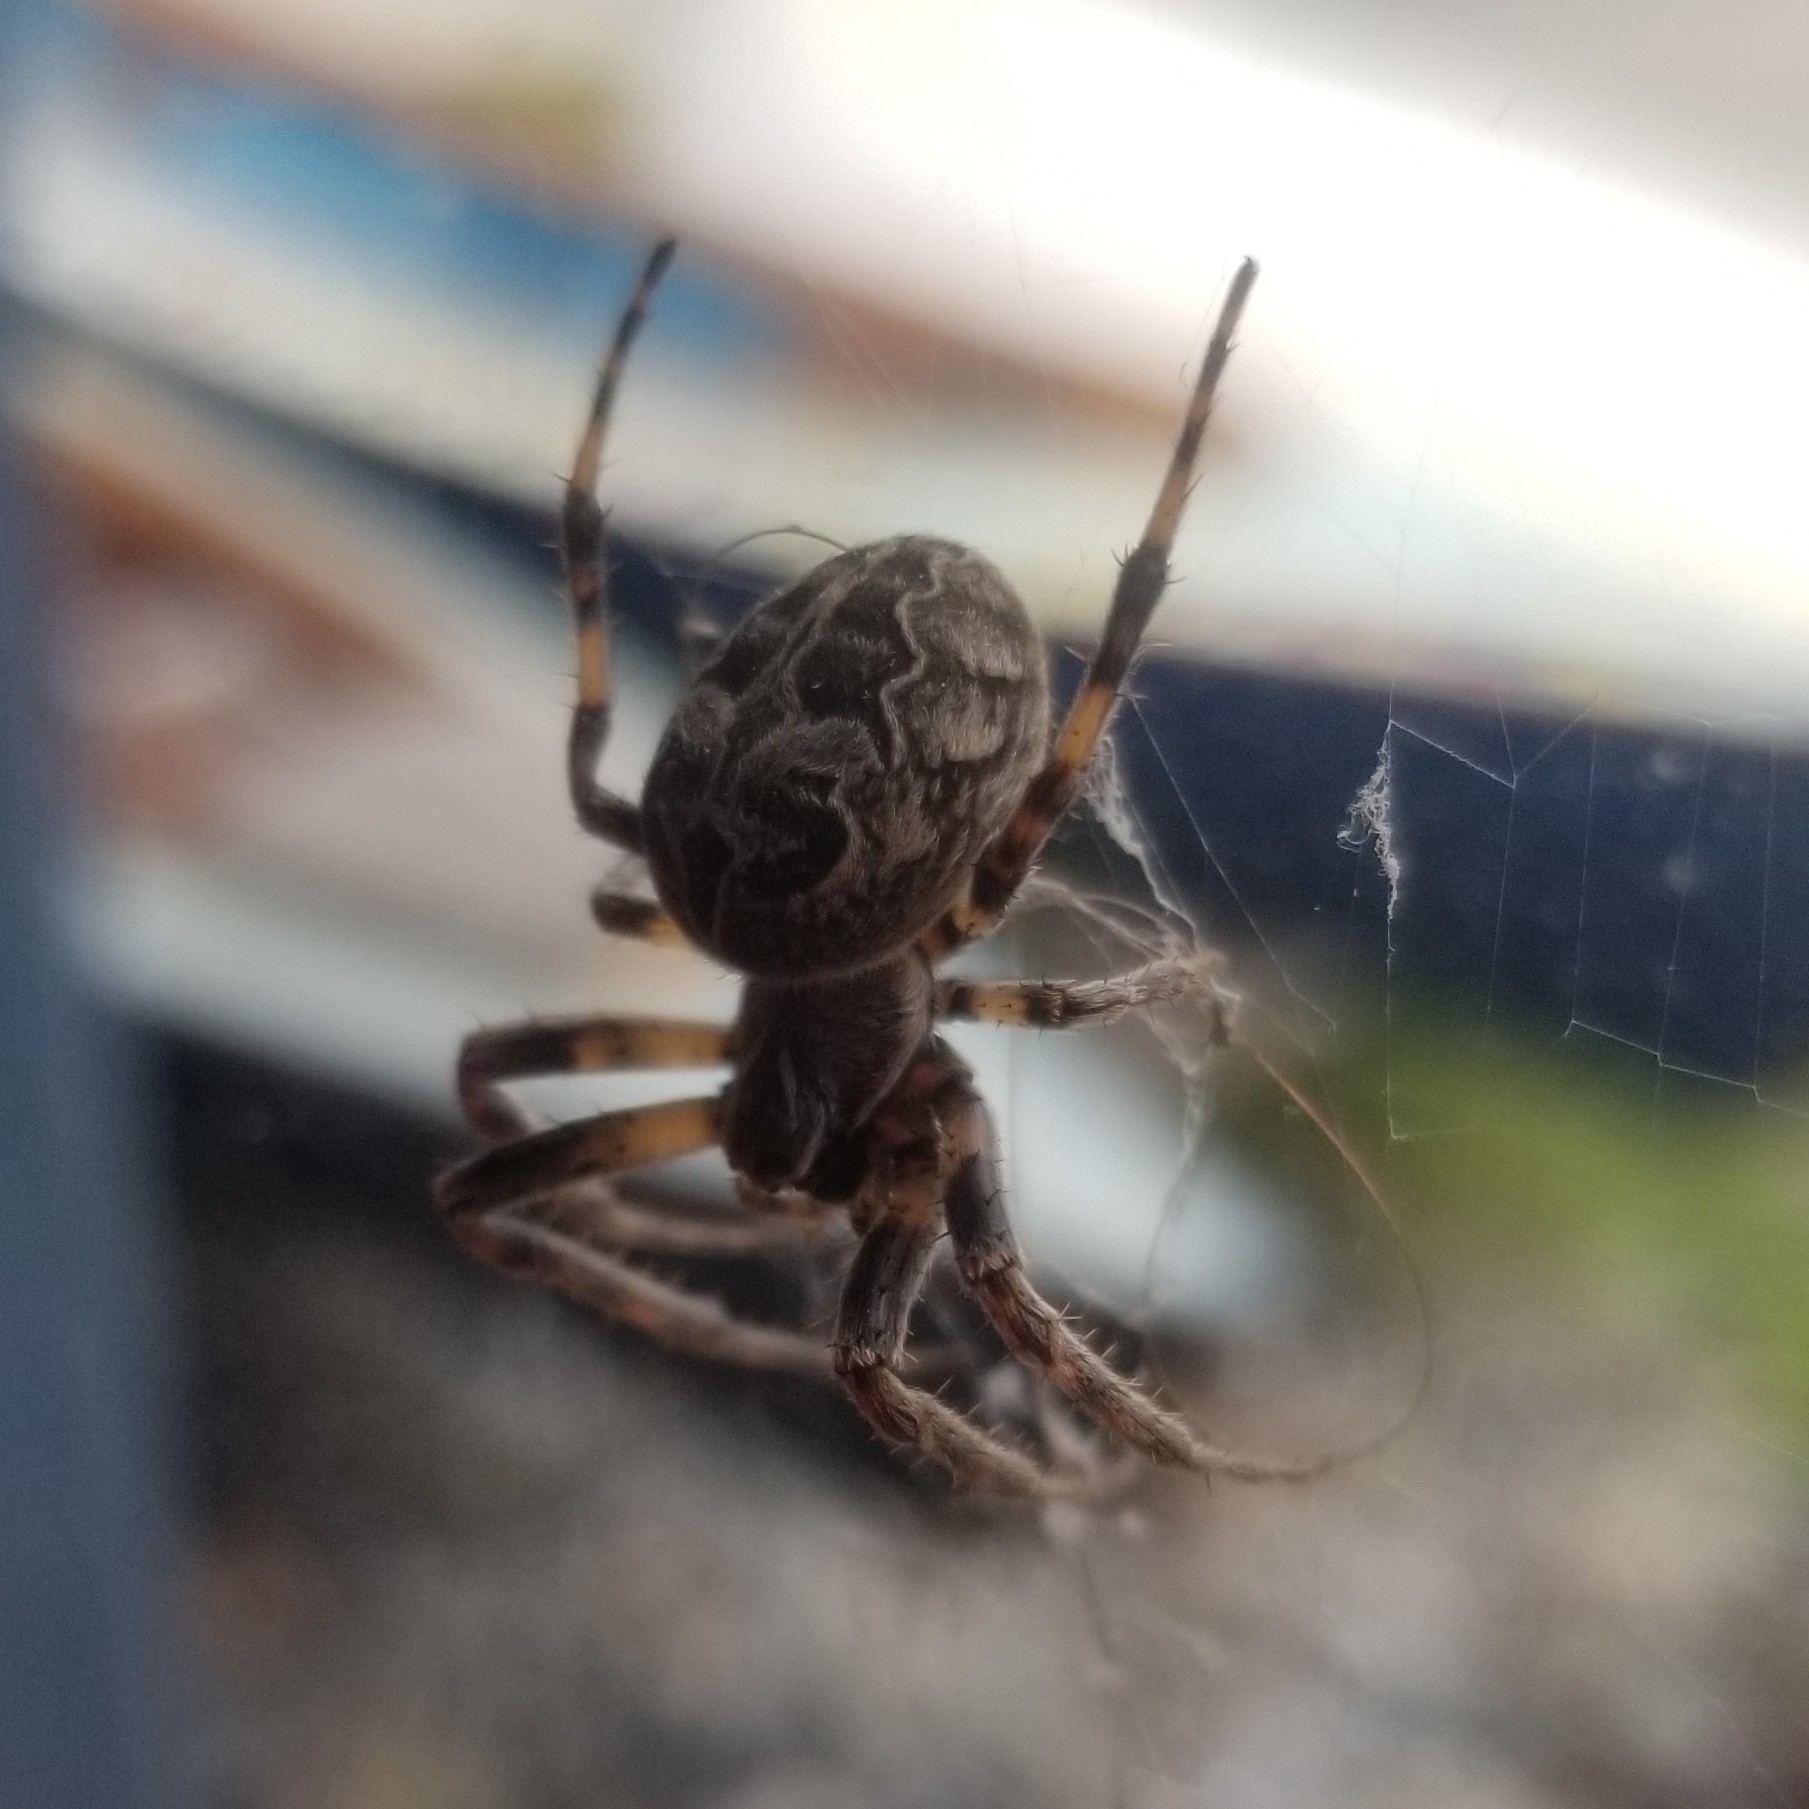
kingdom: Animalia
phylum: Arthropoda
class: Arachnida
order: Araneae
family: Araneidae
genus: Larinioides
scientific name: Larinioides sclopetarius
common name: Bridge orbweaver
